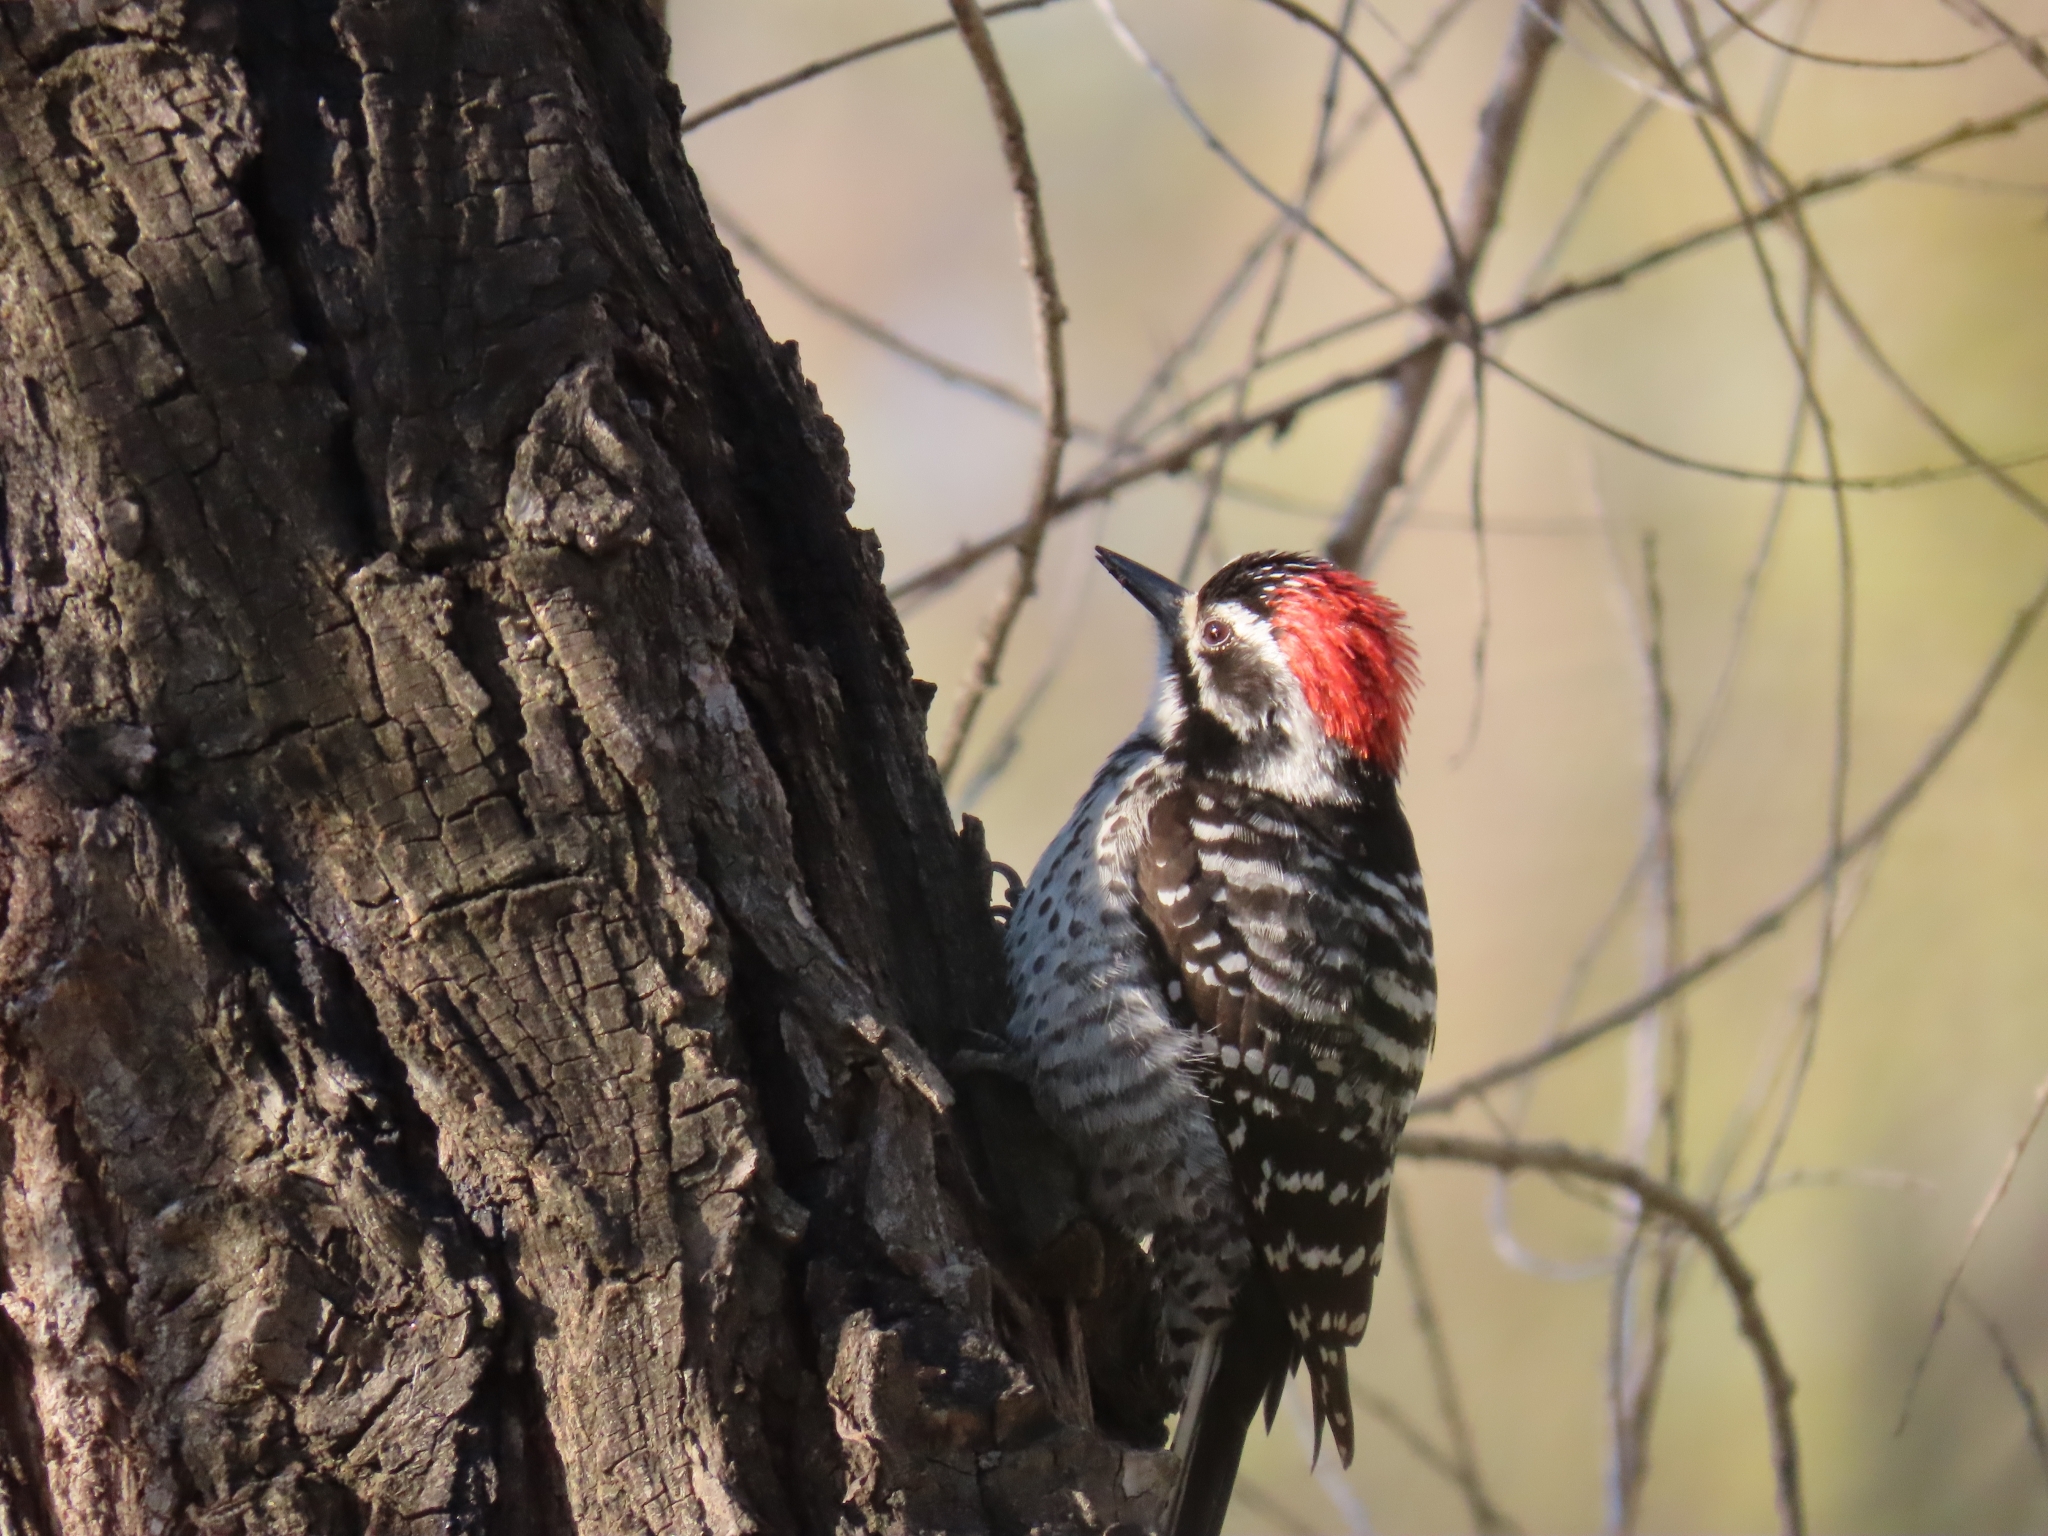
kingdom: Animalia
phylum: Chordata
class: Aves
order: Piciformes
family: Picidae
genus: Dryobates
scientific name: Dryobates nuttallii
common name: Nuttall's woodpecker
